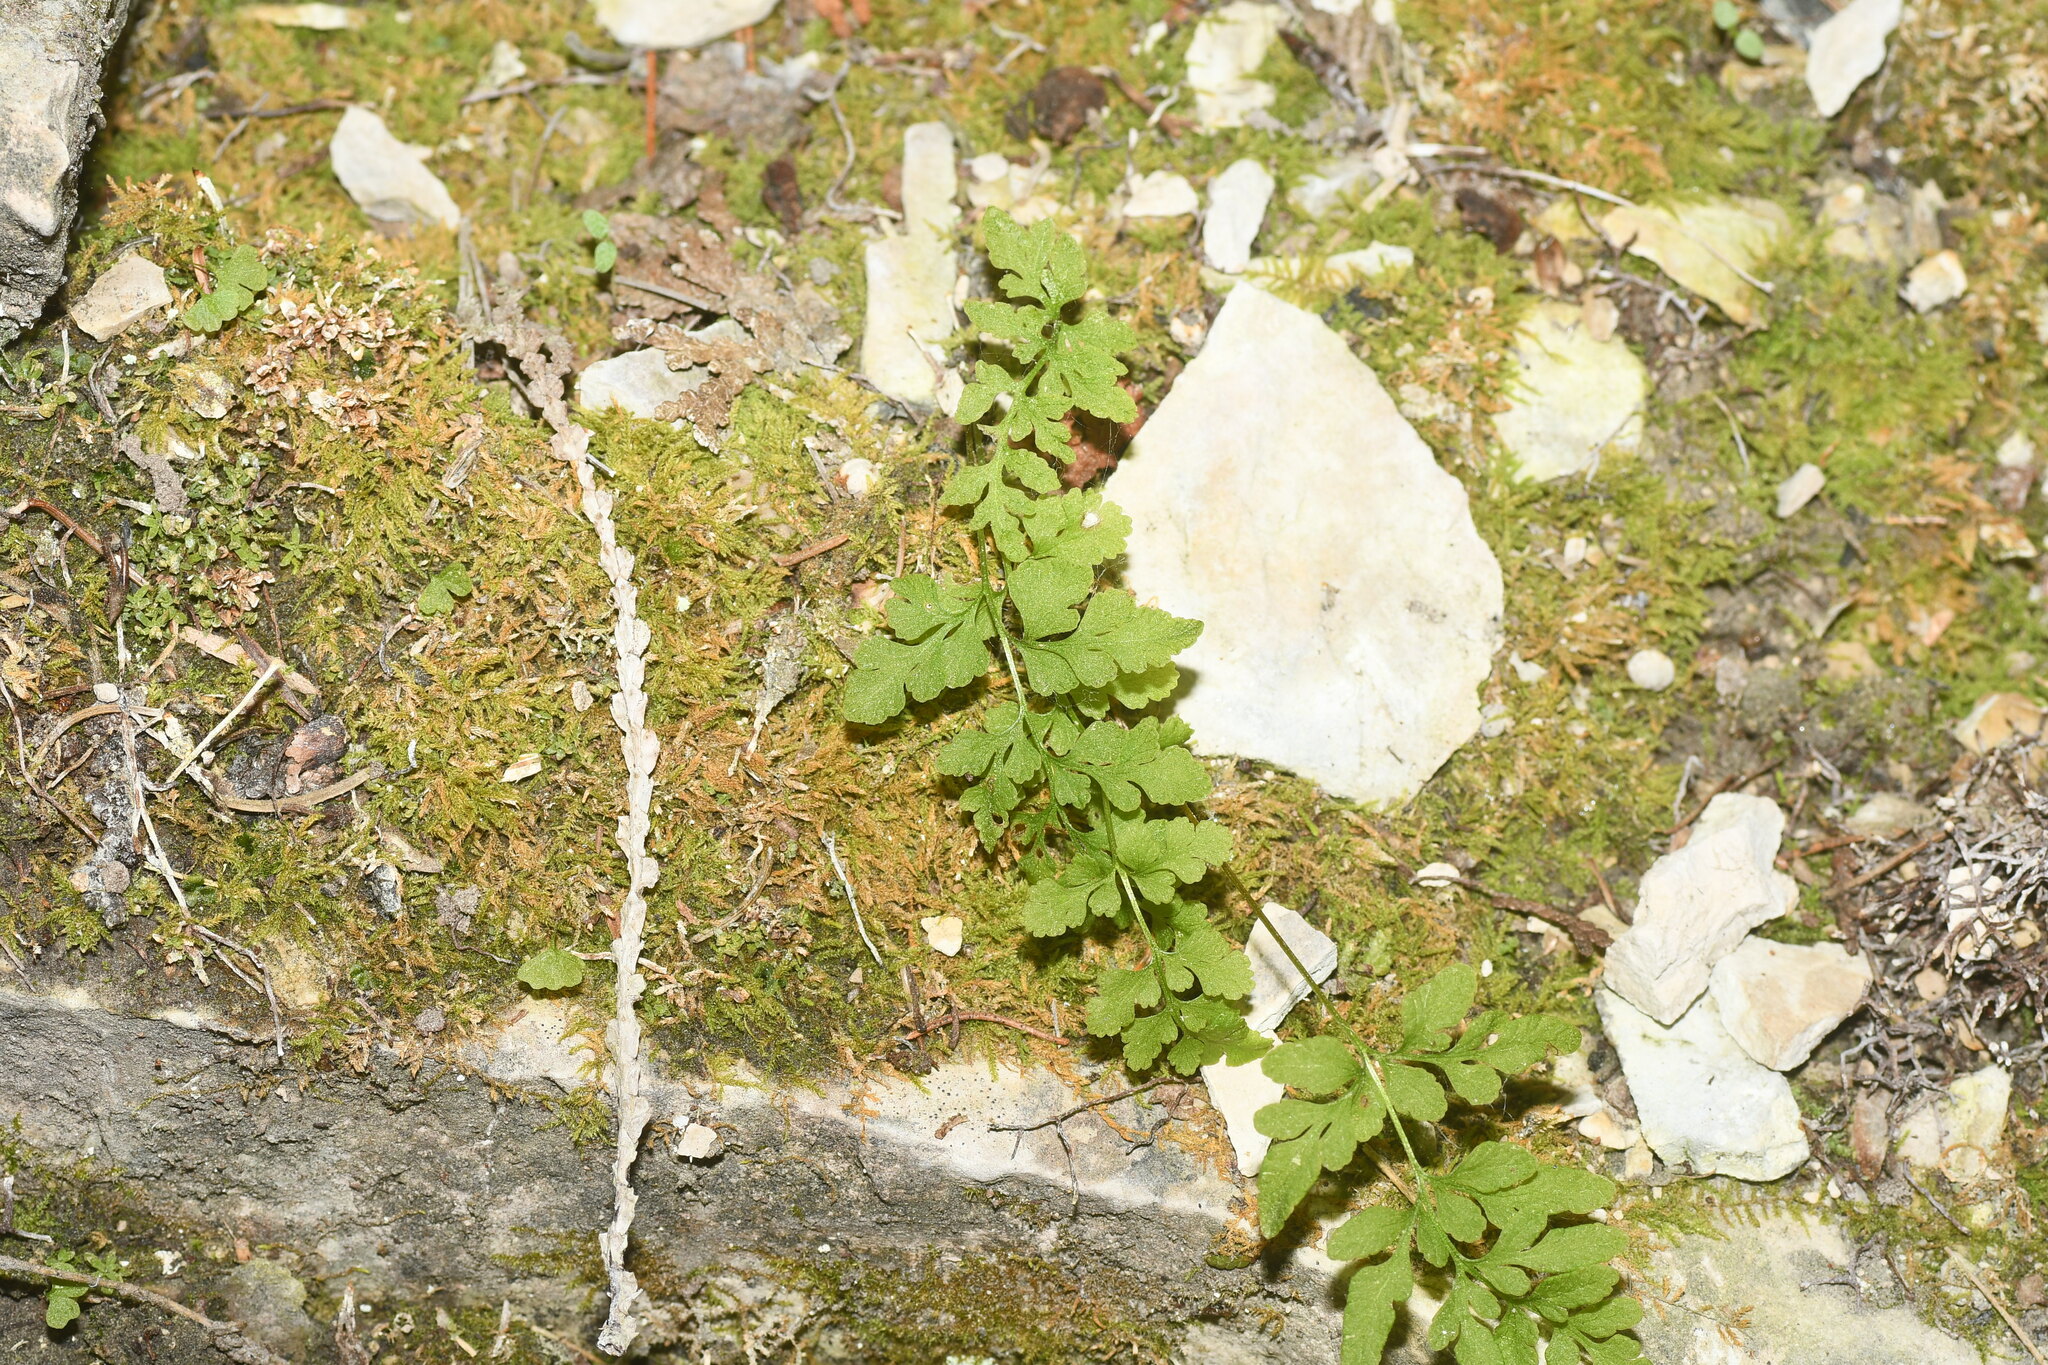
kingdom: Plantae
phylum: Tracheophyta
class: Polypodiopsida
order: Polypodiales
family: Pteridaceae
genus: Cryptogramma
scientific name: Cryptogramma stelleri
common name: Cliff-brake
